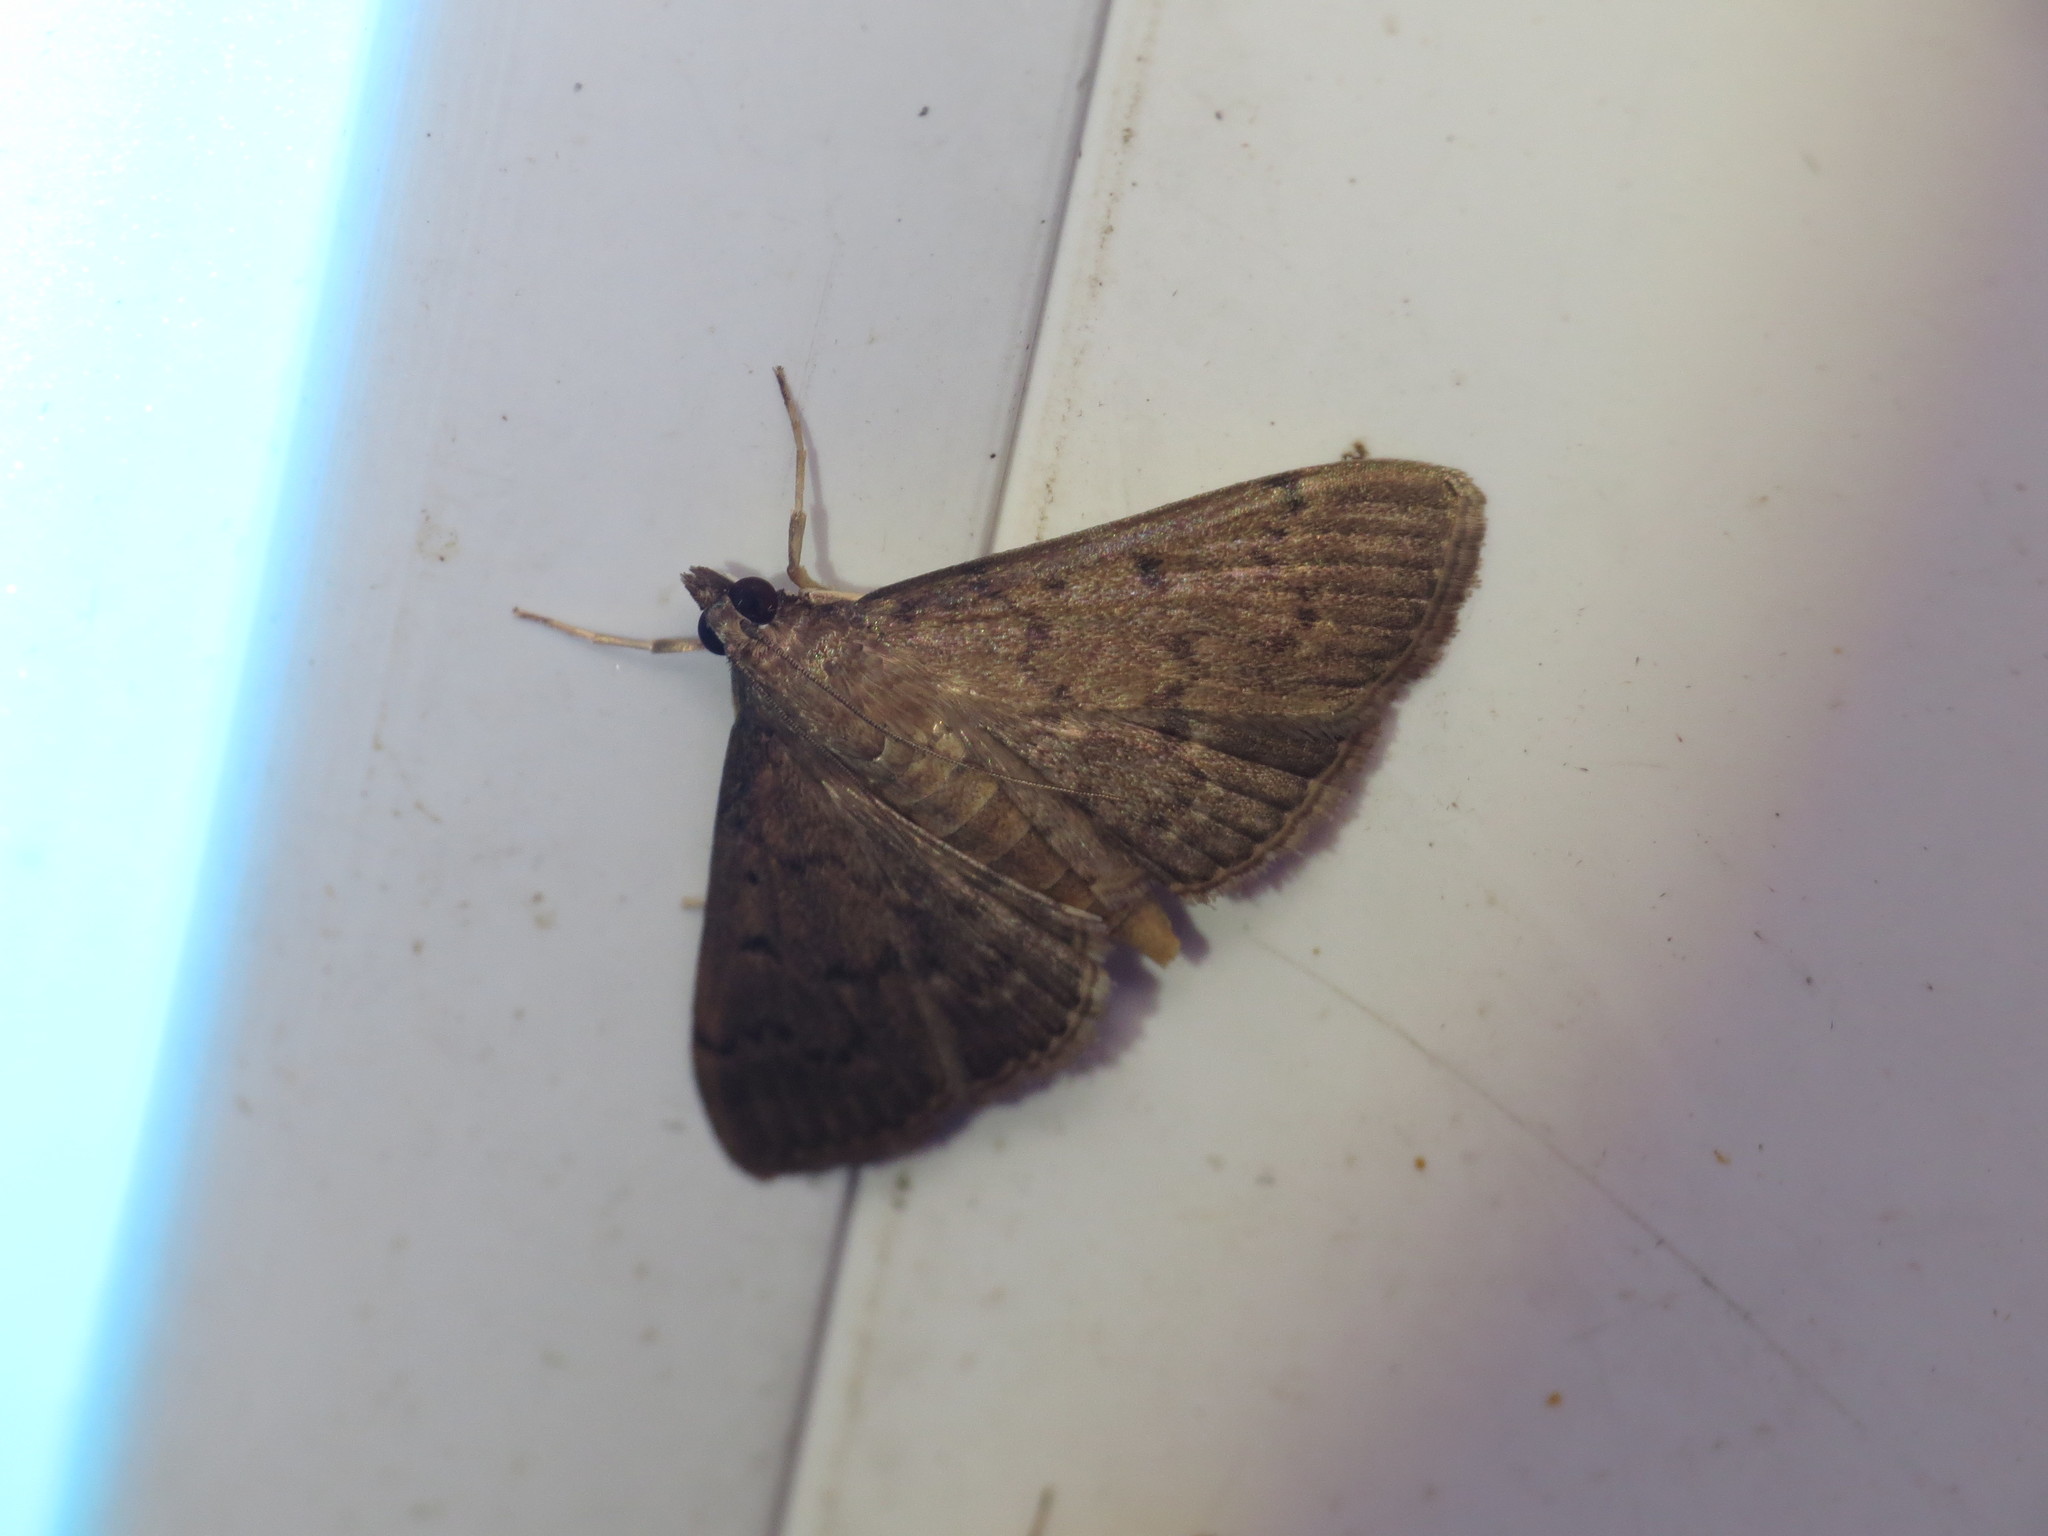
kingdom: Animalia
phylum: Arthropoda
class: Insecta
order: Lepidoptera
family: Crambidae
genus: Herpetogramma
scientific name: Herpetogramma licarsisalis
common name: Grass webworm
